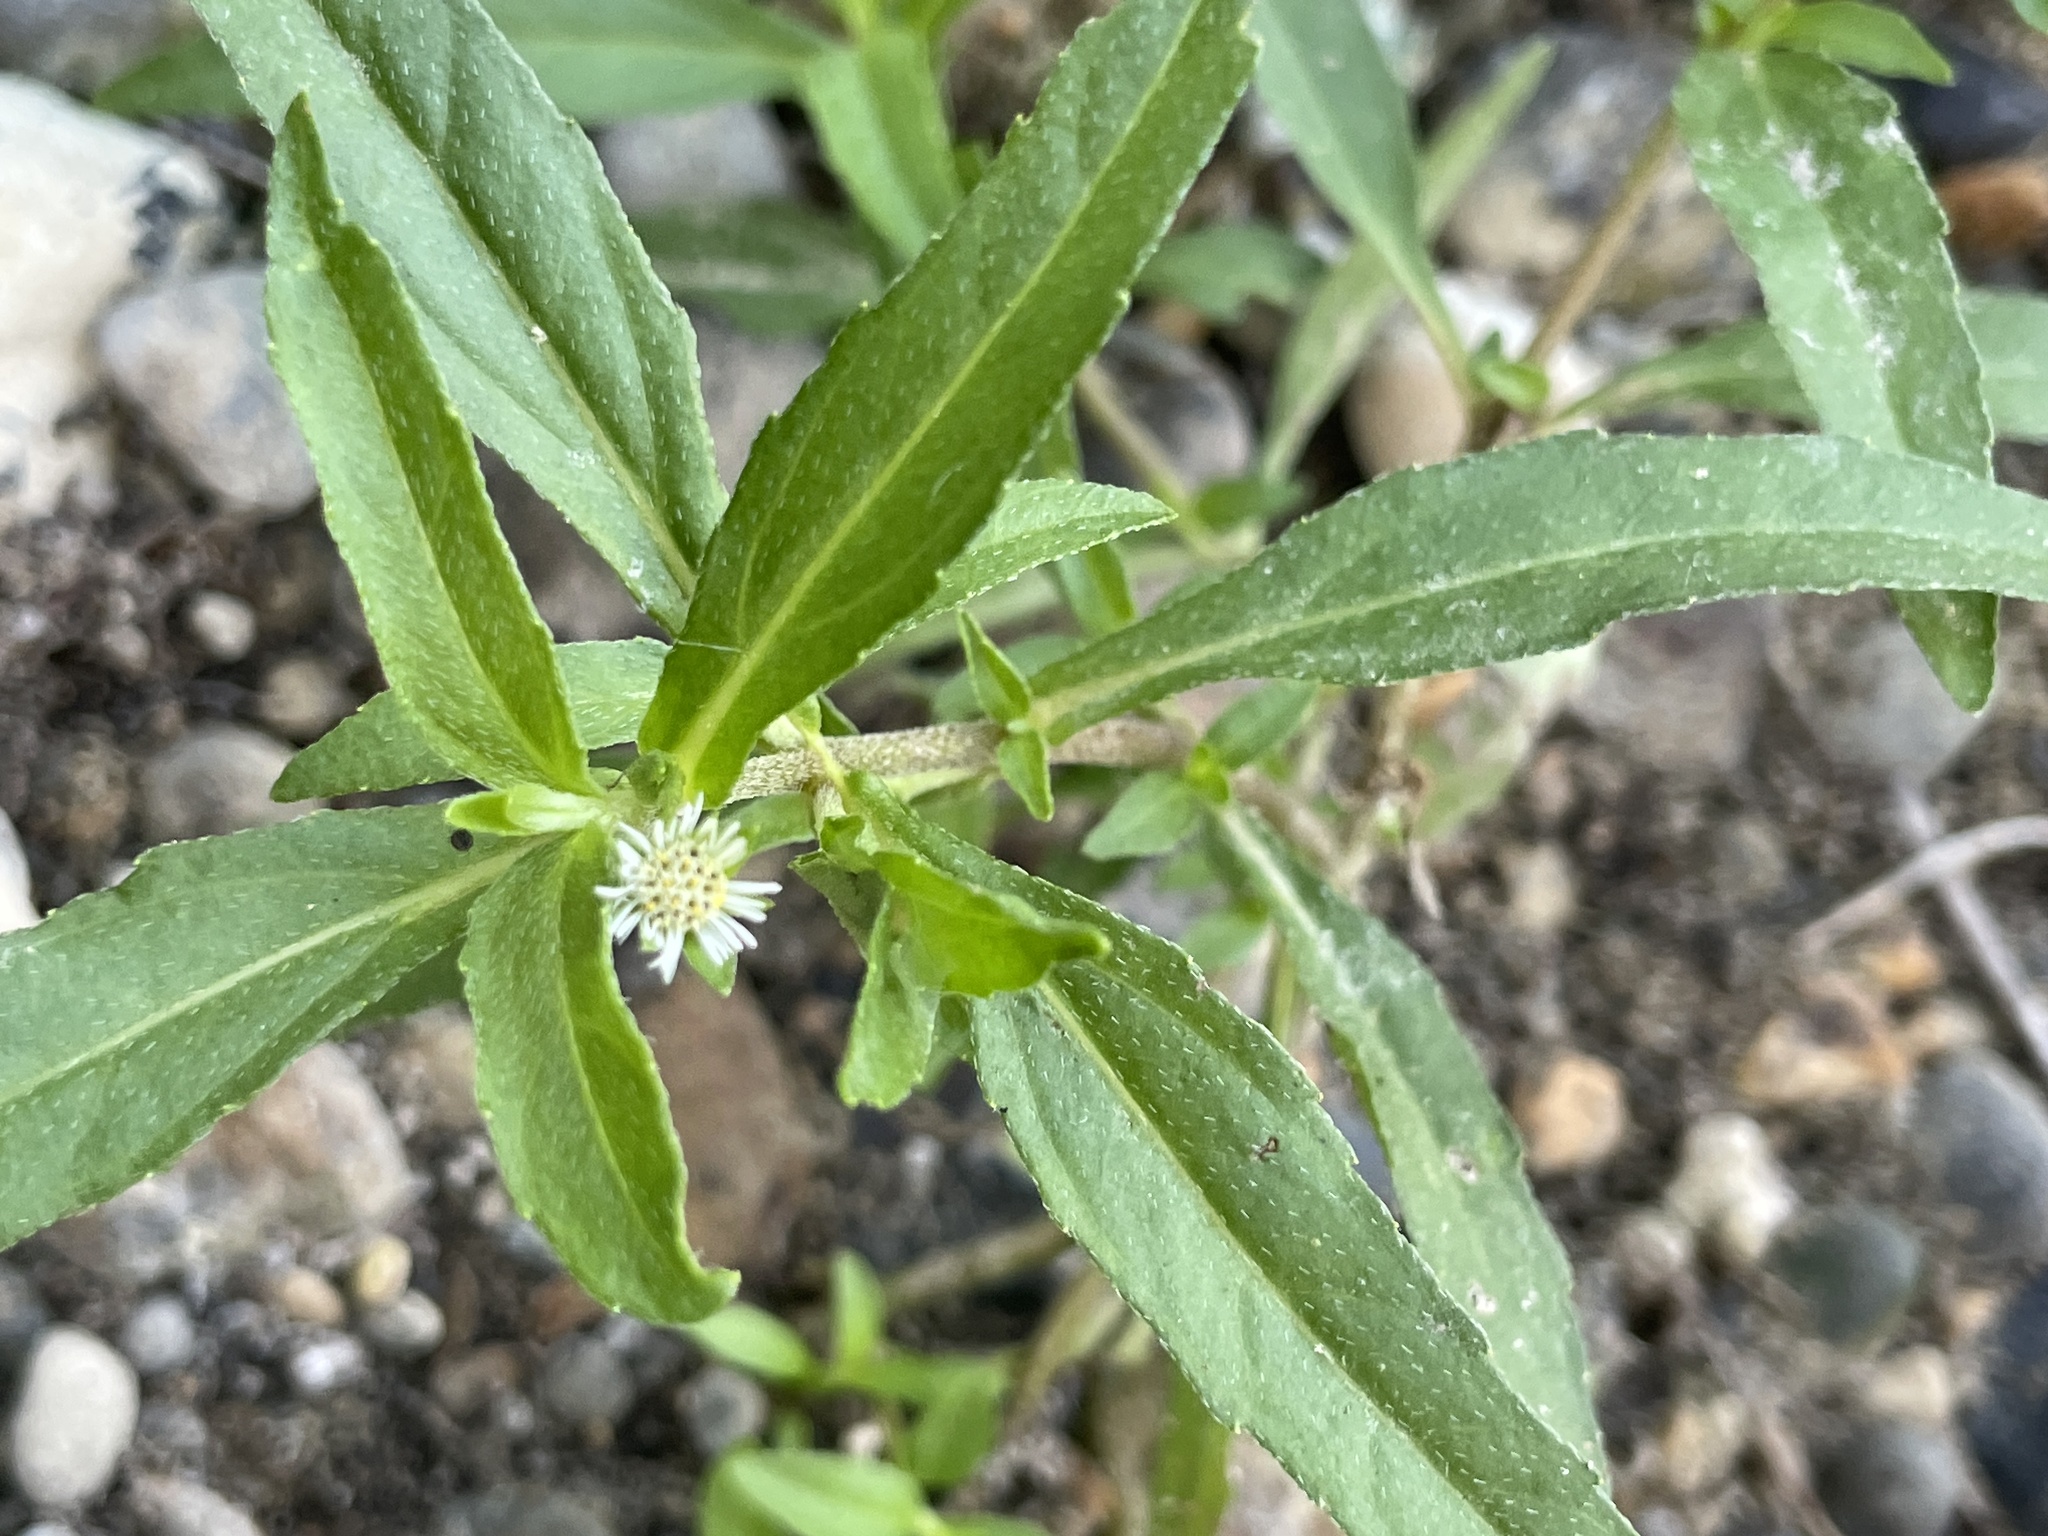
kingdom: Plantae
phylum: Tracheophyta
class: Magnoliopsida
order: Asterales
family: Asteraceae
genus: Eclipta
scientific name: Eclipta prostrata
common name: False daisy
